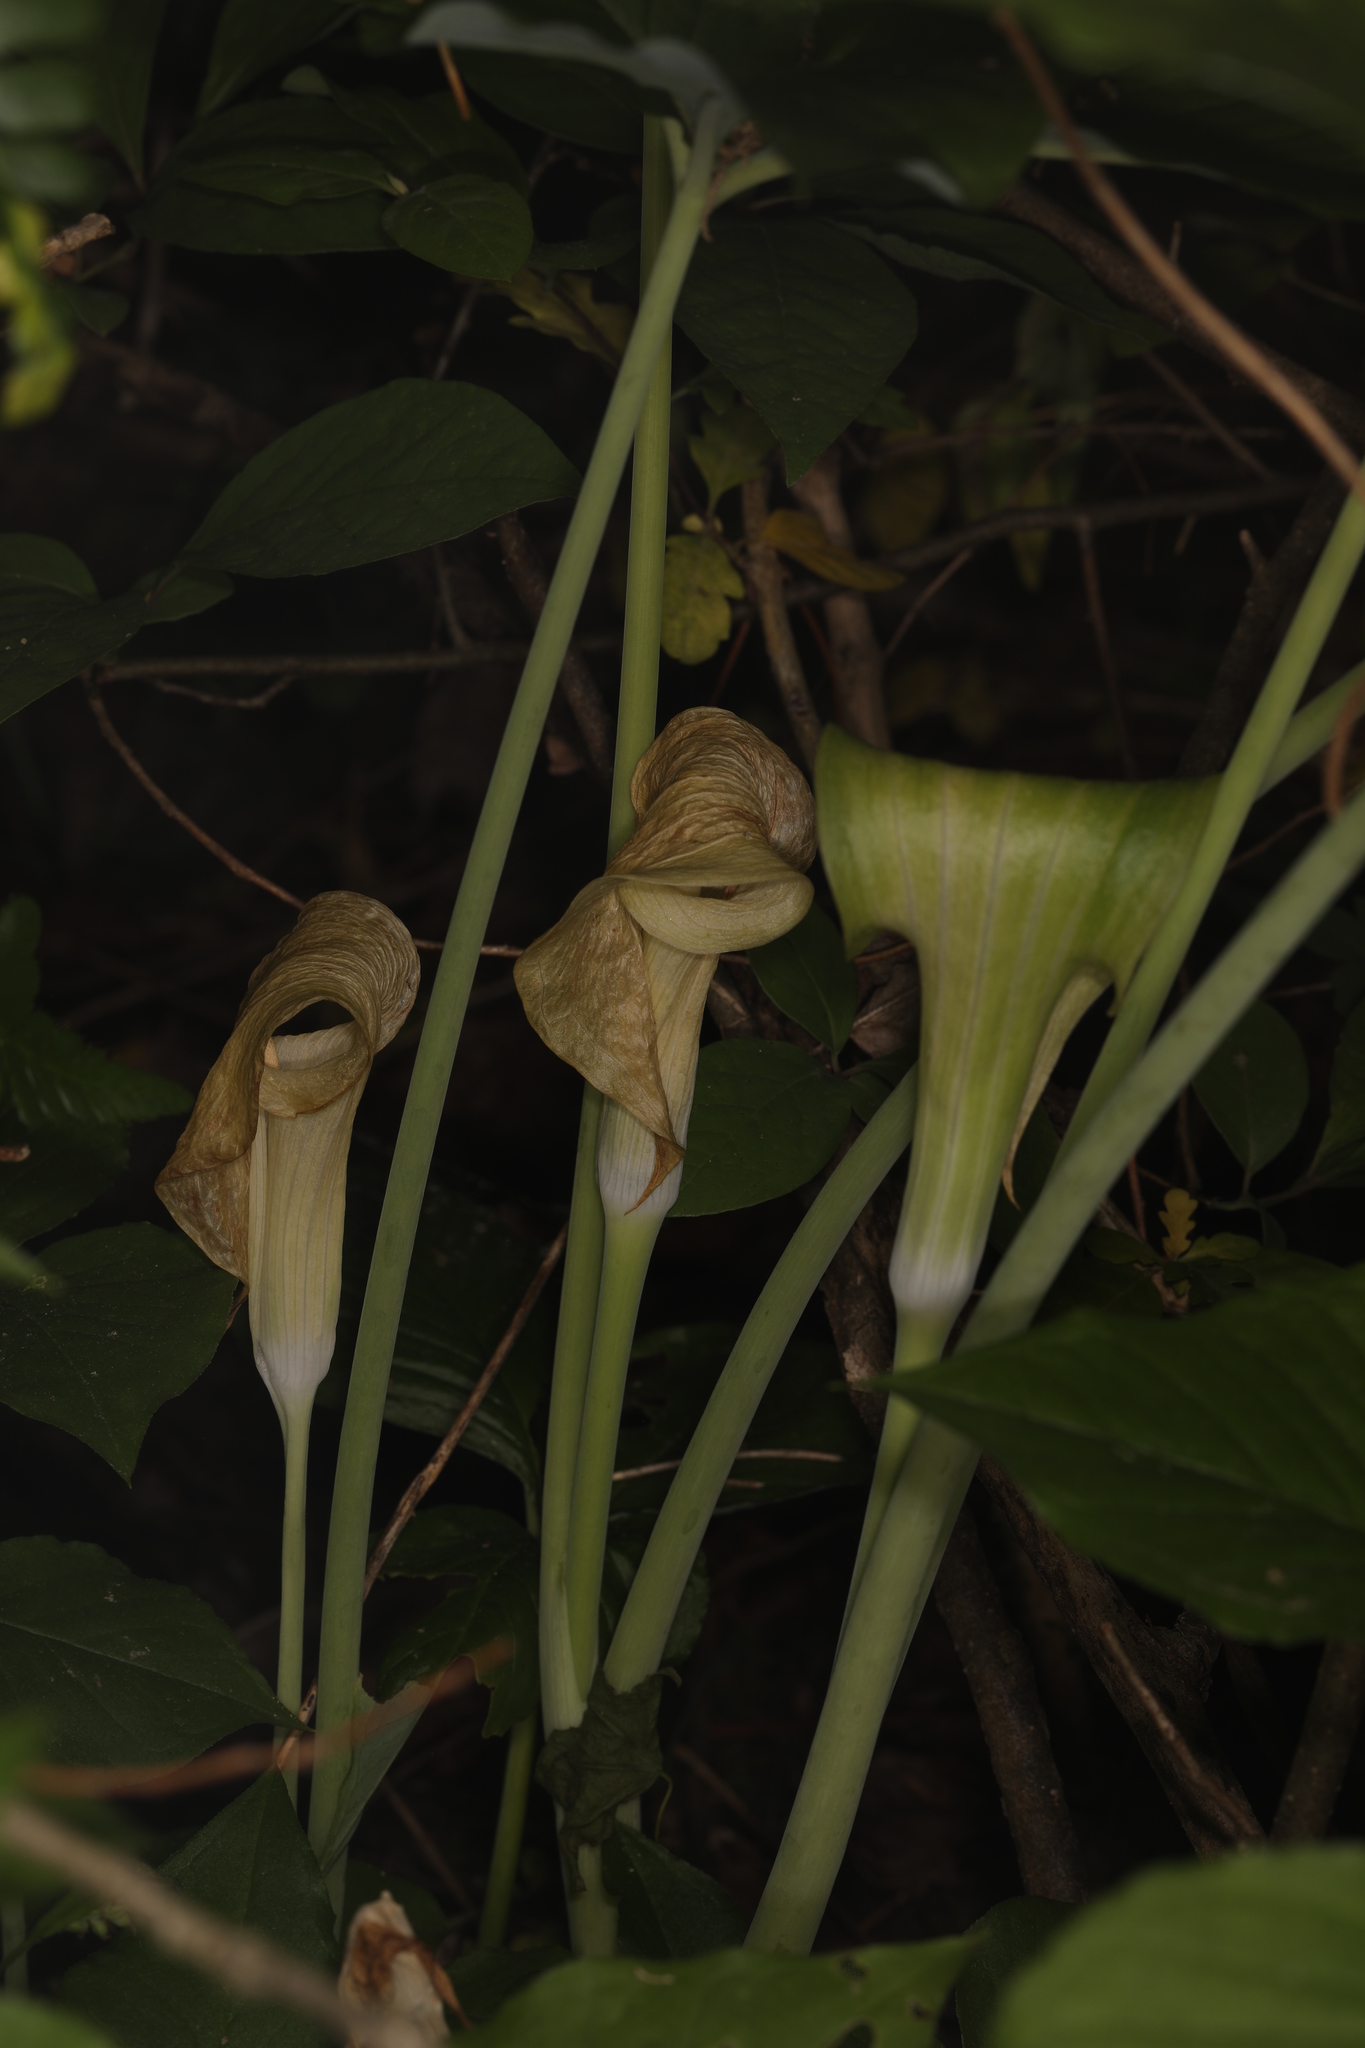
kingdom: Plantae
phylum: Tracheophyta
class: Liliopsida
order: Alismatales
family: Araceae
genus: Arisaema
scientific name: Arisaema triphyllum
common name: Jack-in-the-pulpit
